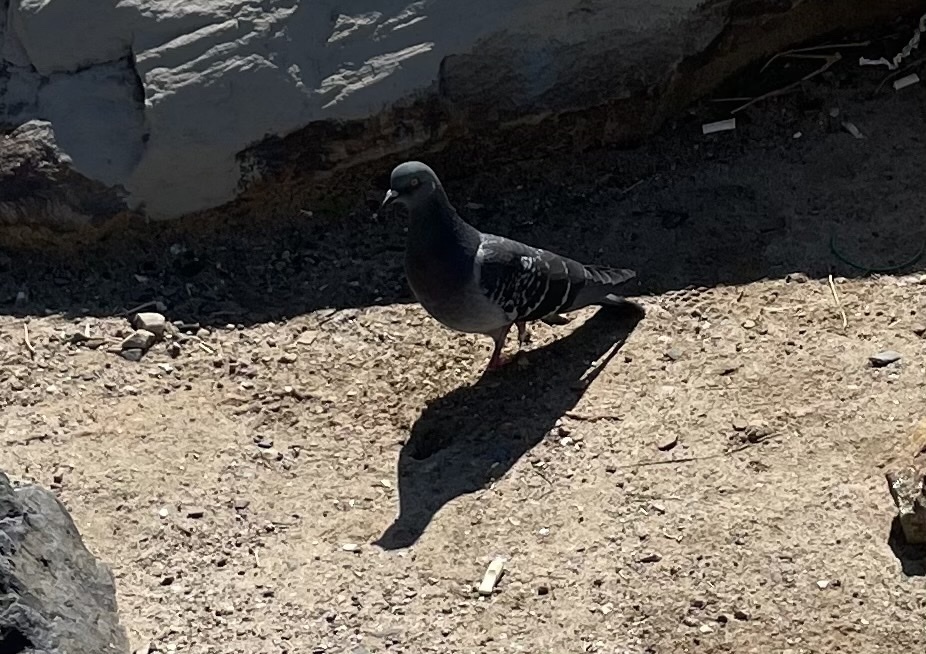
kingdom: Animalia
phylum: Chordata
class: Aves
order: Columbiformes
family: Columbidae
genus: Columba
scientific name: Columba livia
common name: Rock pigeon
